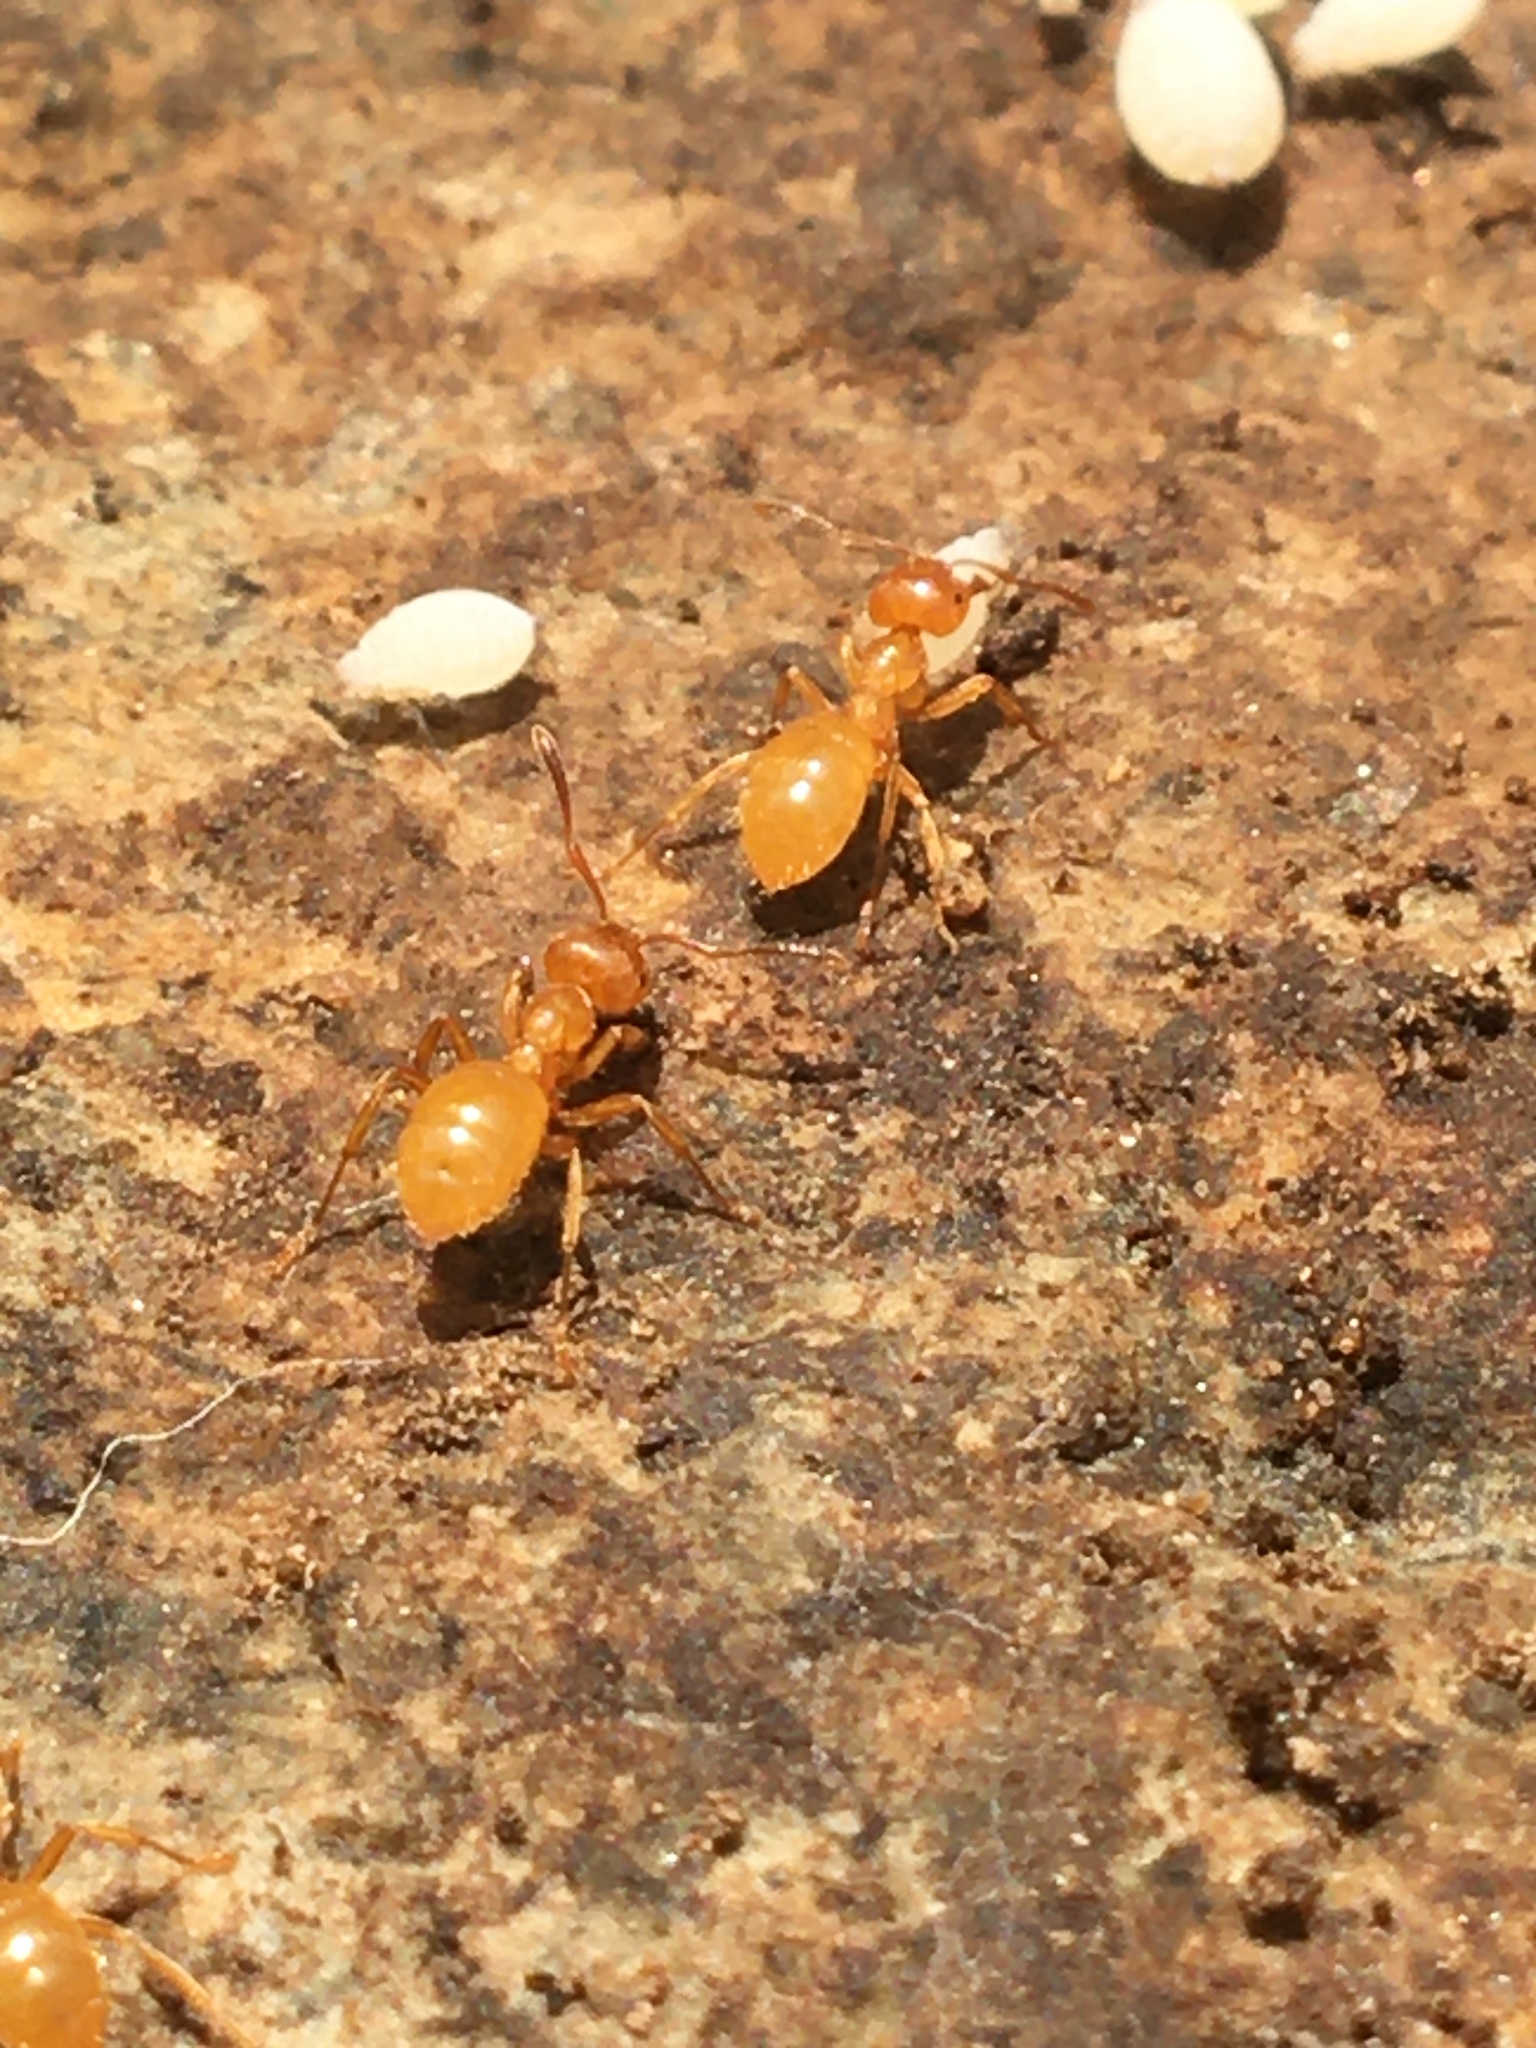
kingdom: Animalia
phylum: Arthropoda
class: Insecta
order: Hymenoptera
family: Formicidae
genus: Acanthomyops
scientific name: Acanthomyops
